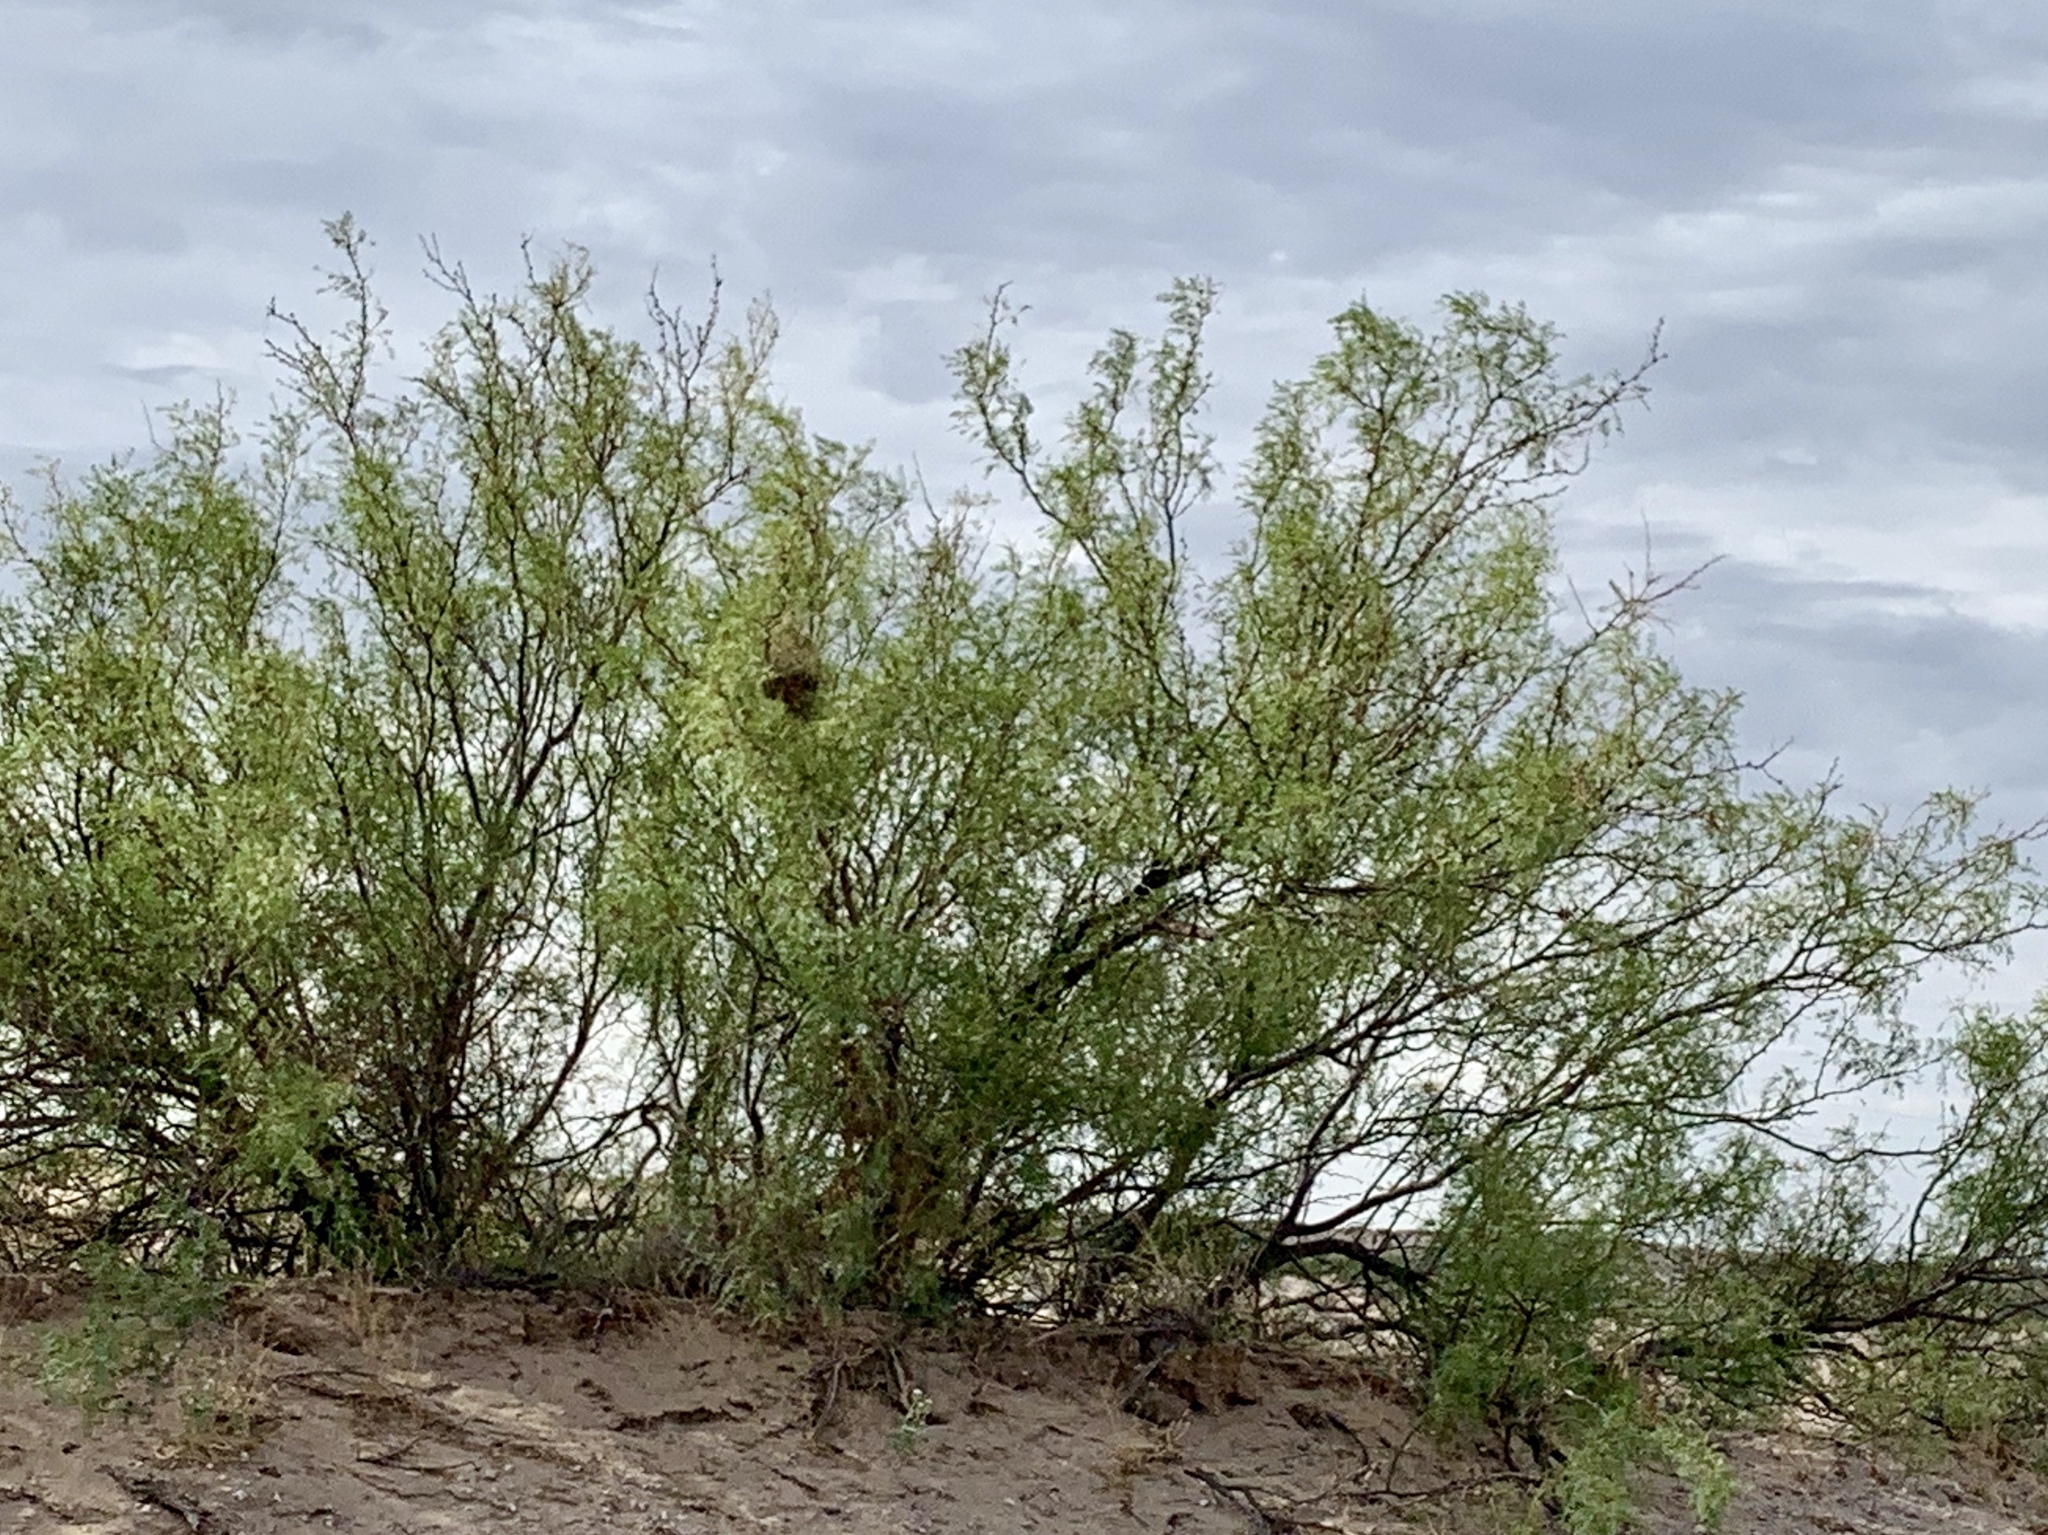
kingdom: Plantae
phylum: Tracheophyta
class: Magnoliopsida
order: Fabales
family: Fabaceae
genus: Prosopis
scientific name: Prosopis glandulosa
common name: Honey mesquite
